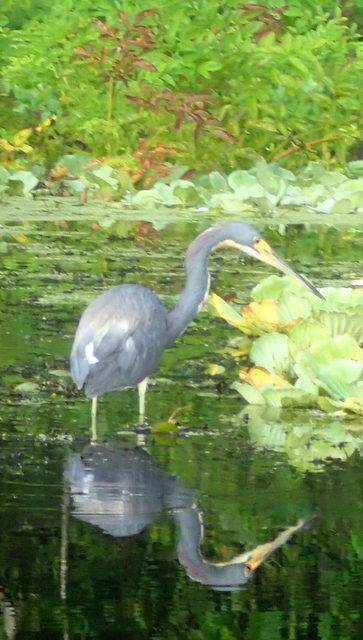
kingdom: Animalia
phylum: Chordata
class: Aves
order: Pelecaniformes
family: Ardeidae
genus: Egretta
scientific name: Egretta tricolor
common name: Tricolored heron
